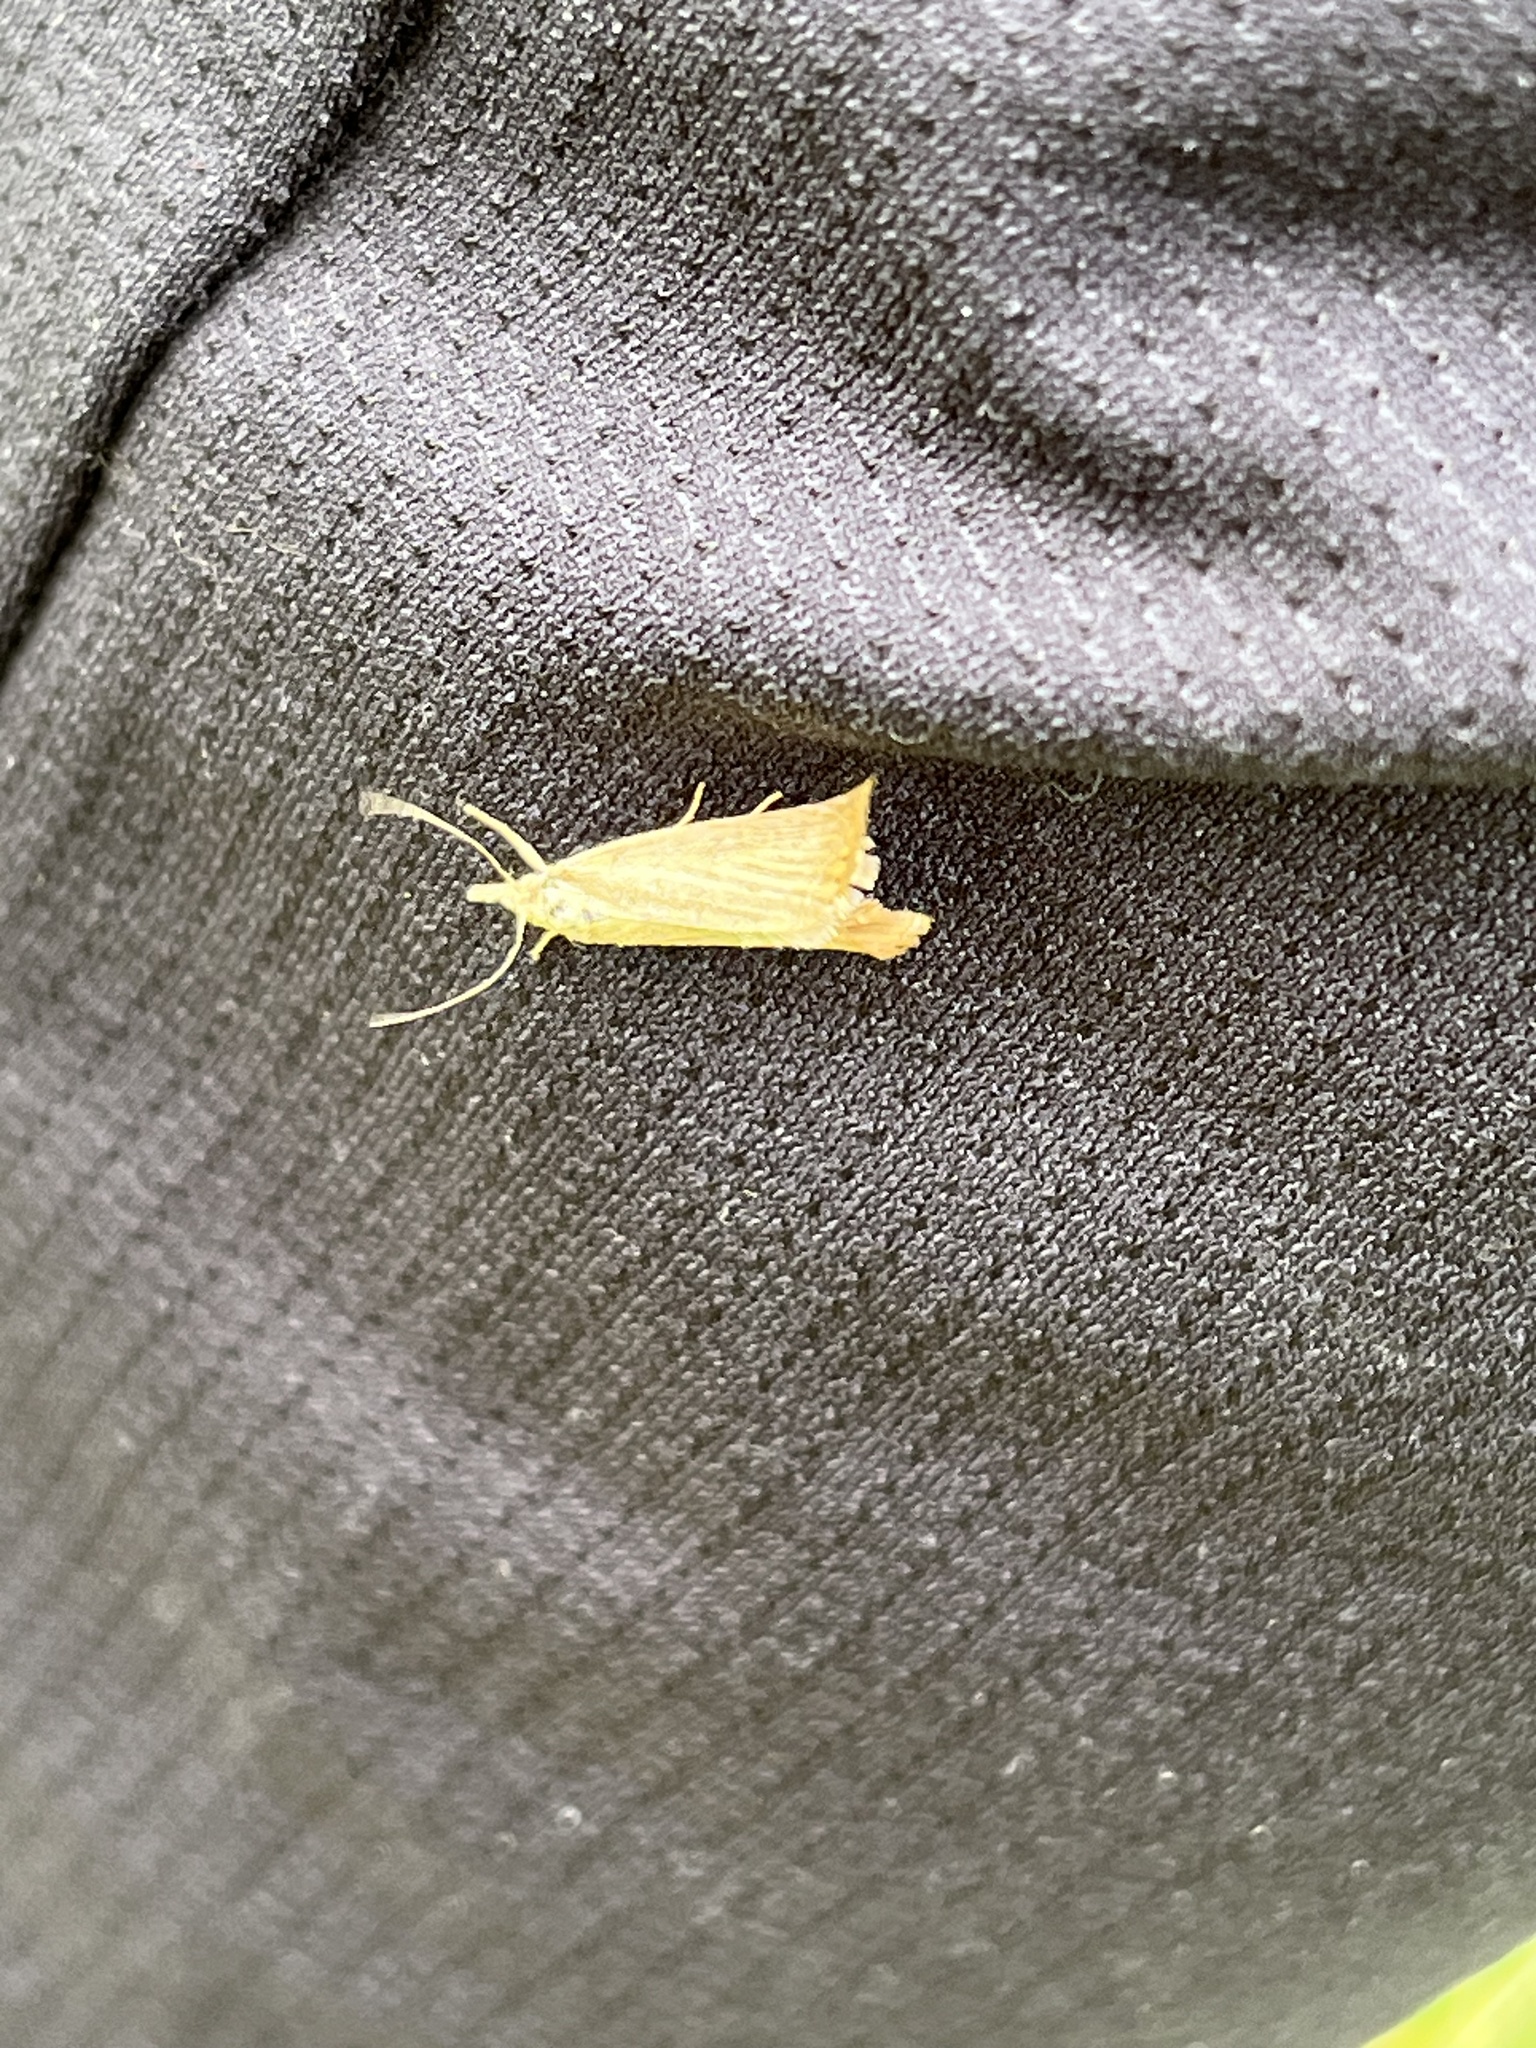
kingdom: Animalia
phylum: Arthropoda
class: Insecta
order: Lepidoptera
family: Crambidae
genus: Chrysoteuchia
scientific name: Chrysoteuchia culmella
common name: Garden grass-veneer
